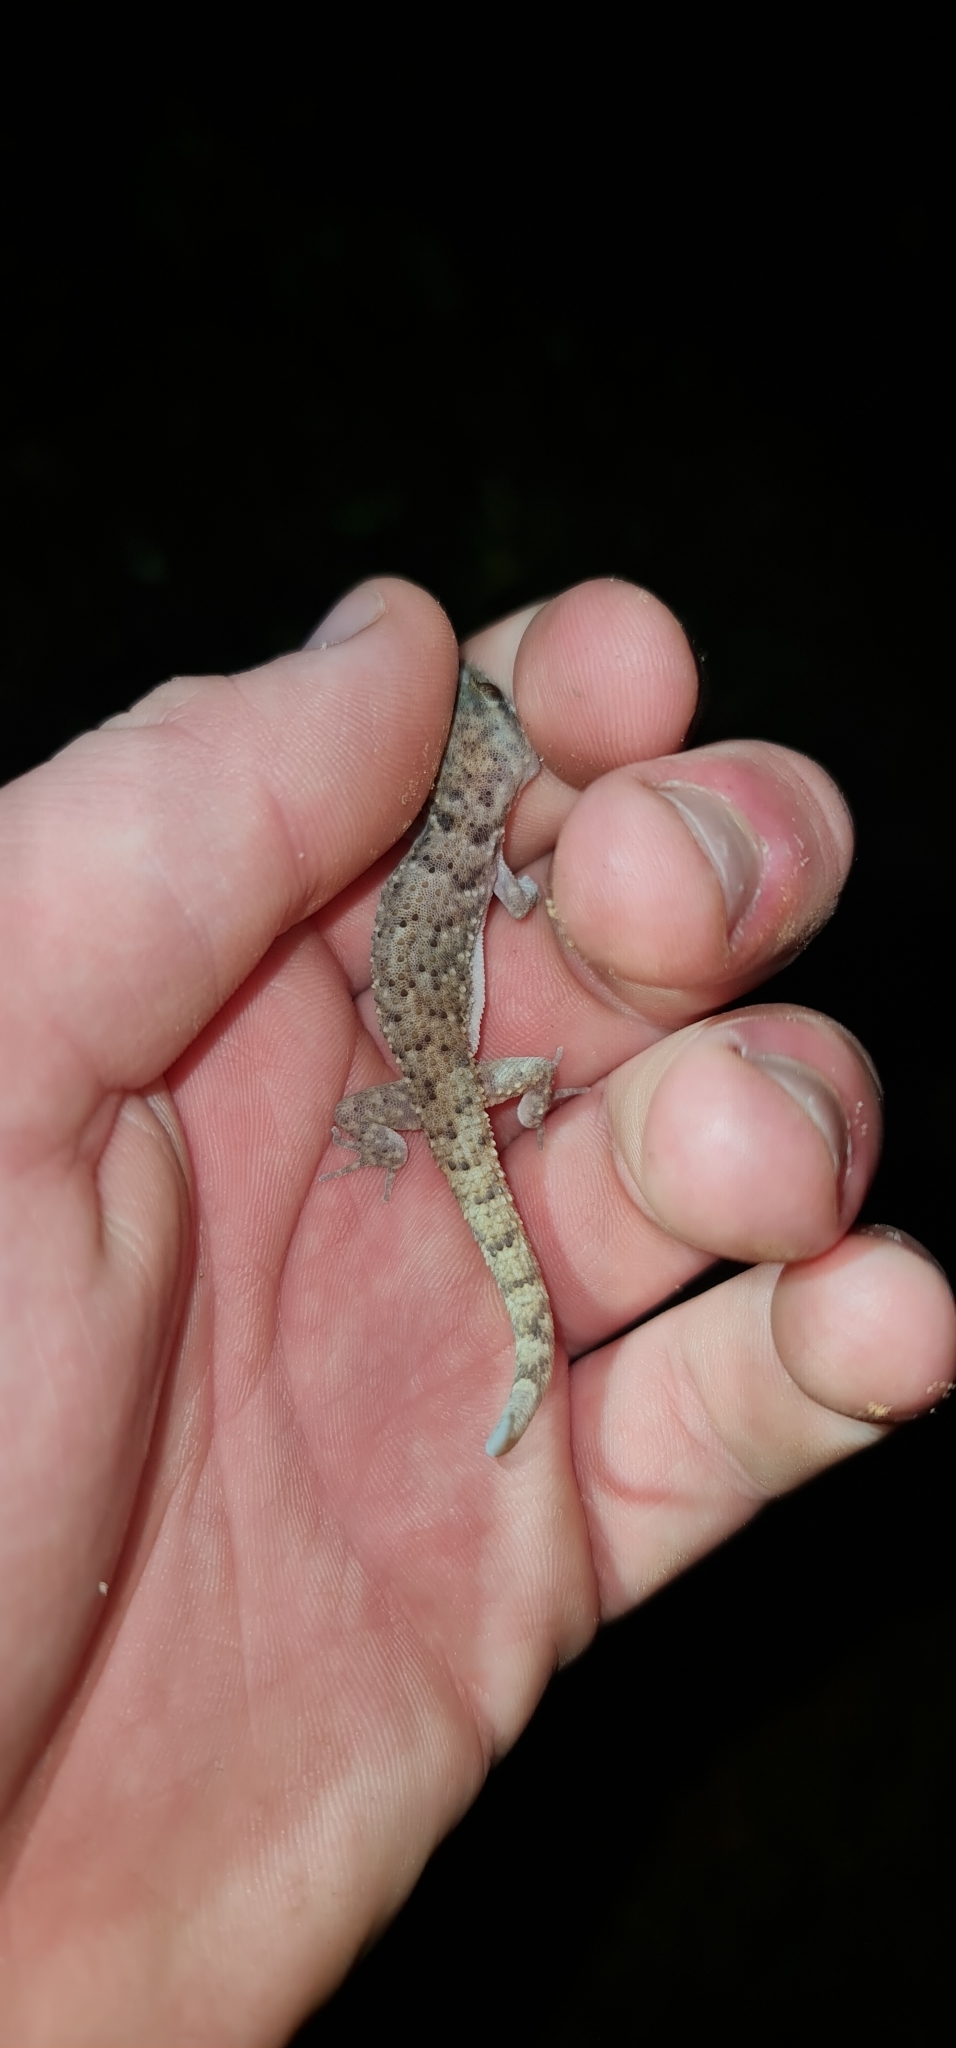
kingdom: Animalia
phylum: Chordata
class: Squamata
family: Gekkonidae
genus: Heteronotia
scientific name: Heteronotia binoei
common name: Bynoe's gecko
